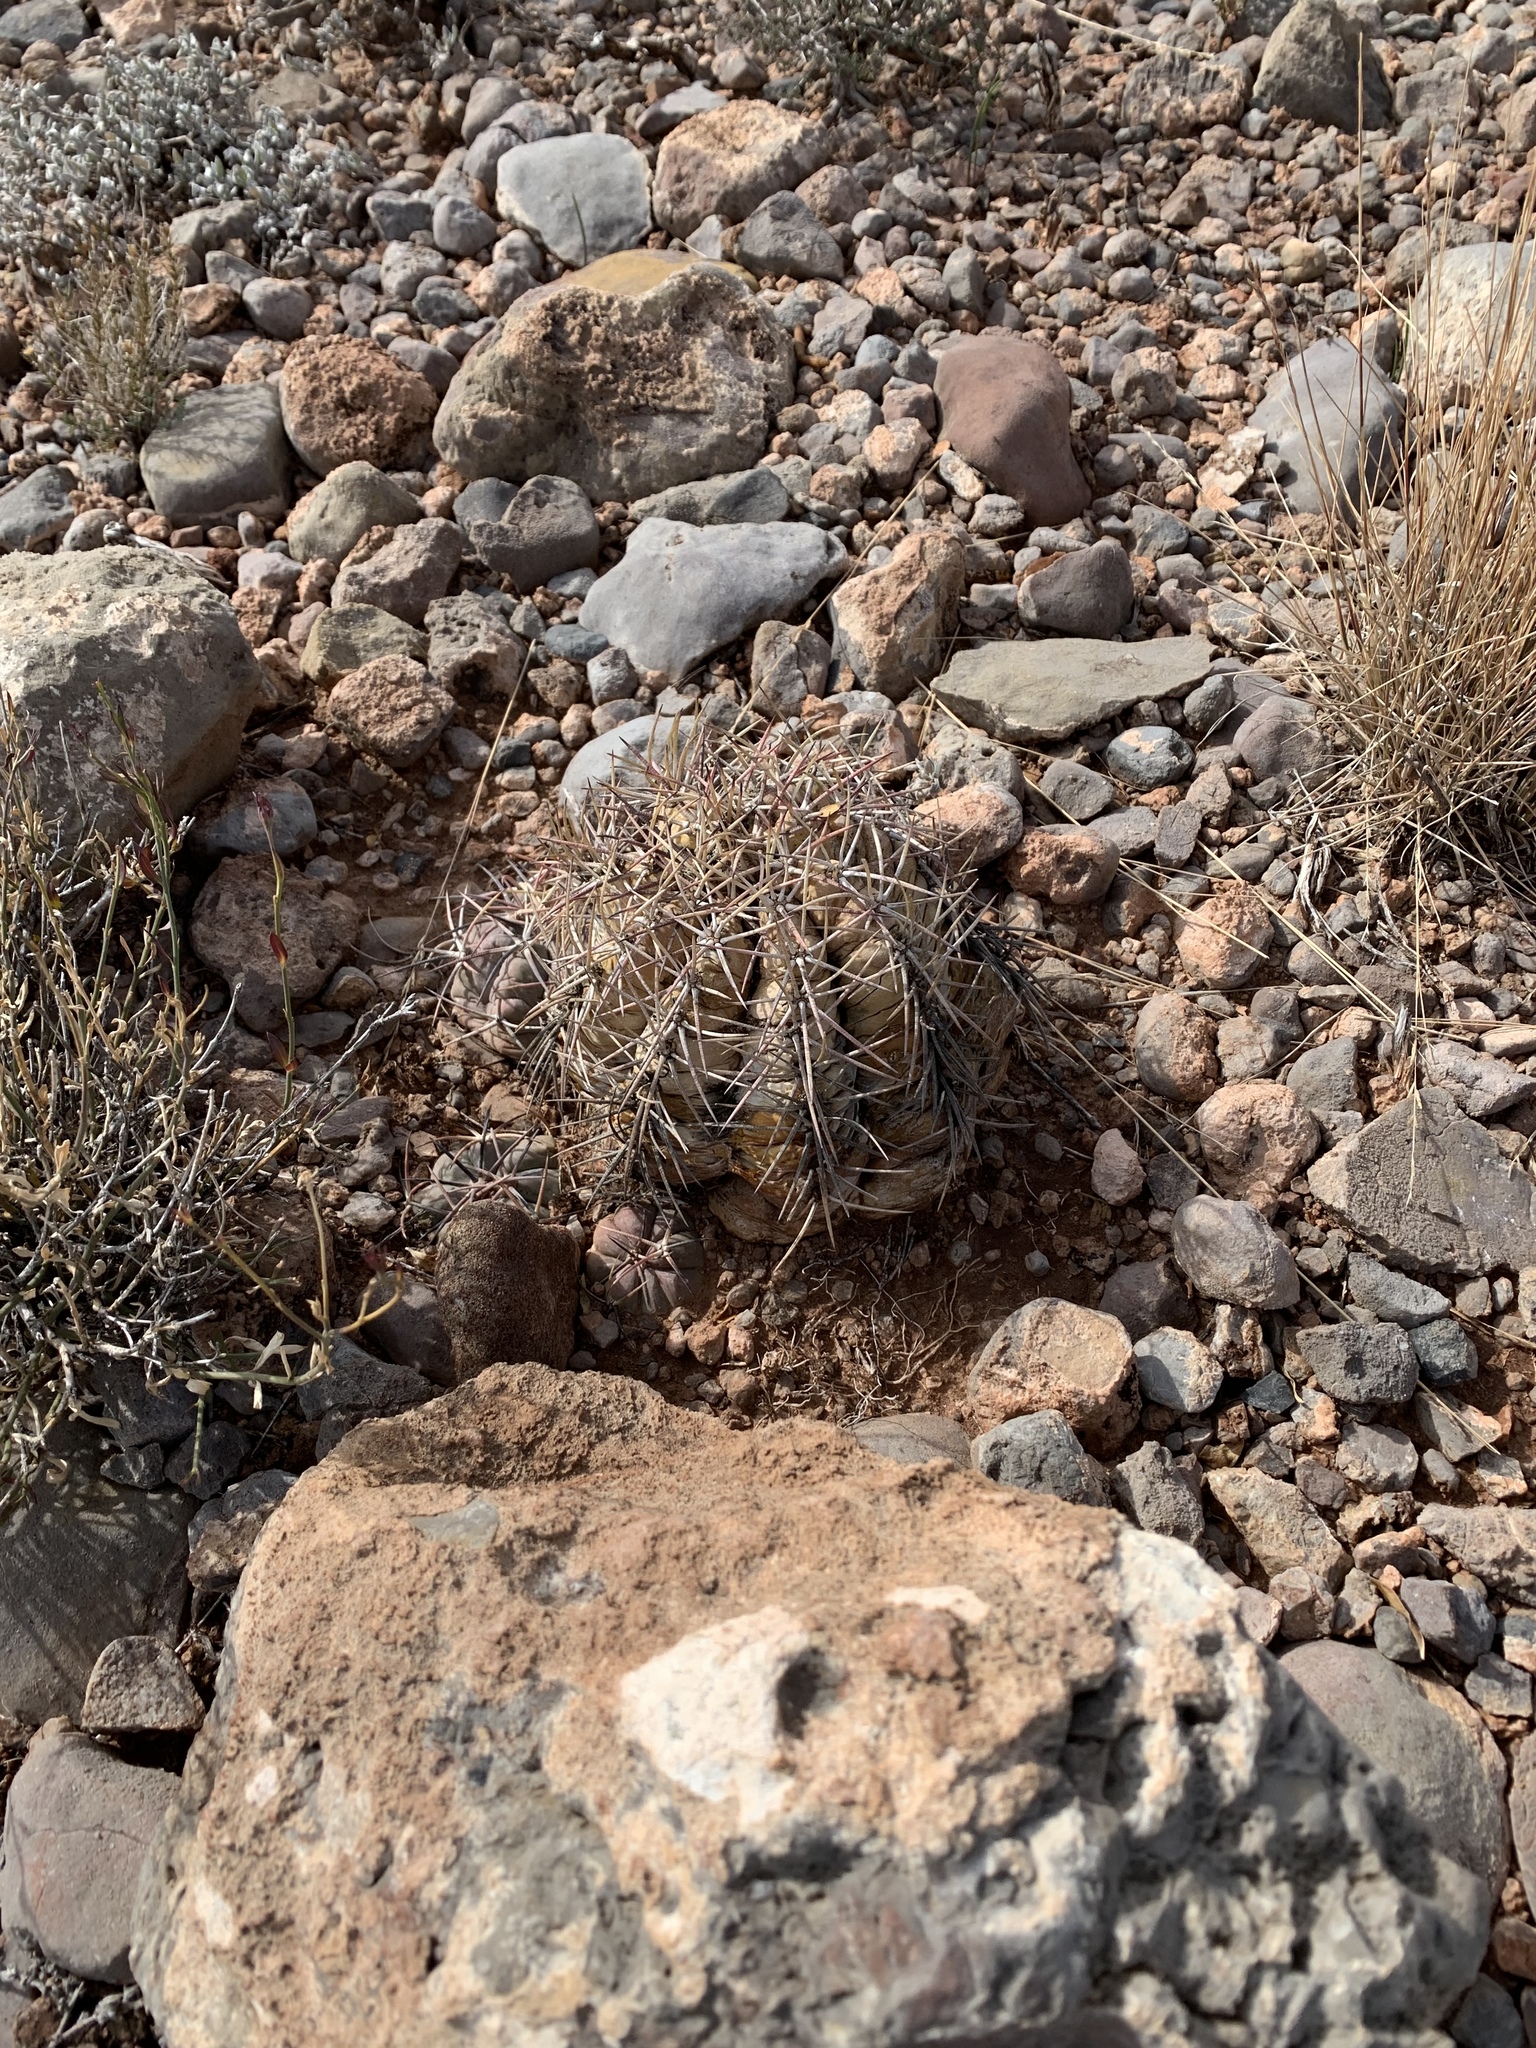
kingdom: Plantae
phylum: Tracheophyta
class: Magnoliopsida
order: Caryophyllales
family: Cactaceae
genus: Echinocactus
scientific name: Echinocactus horizonthalonius
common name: Devilshead
